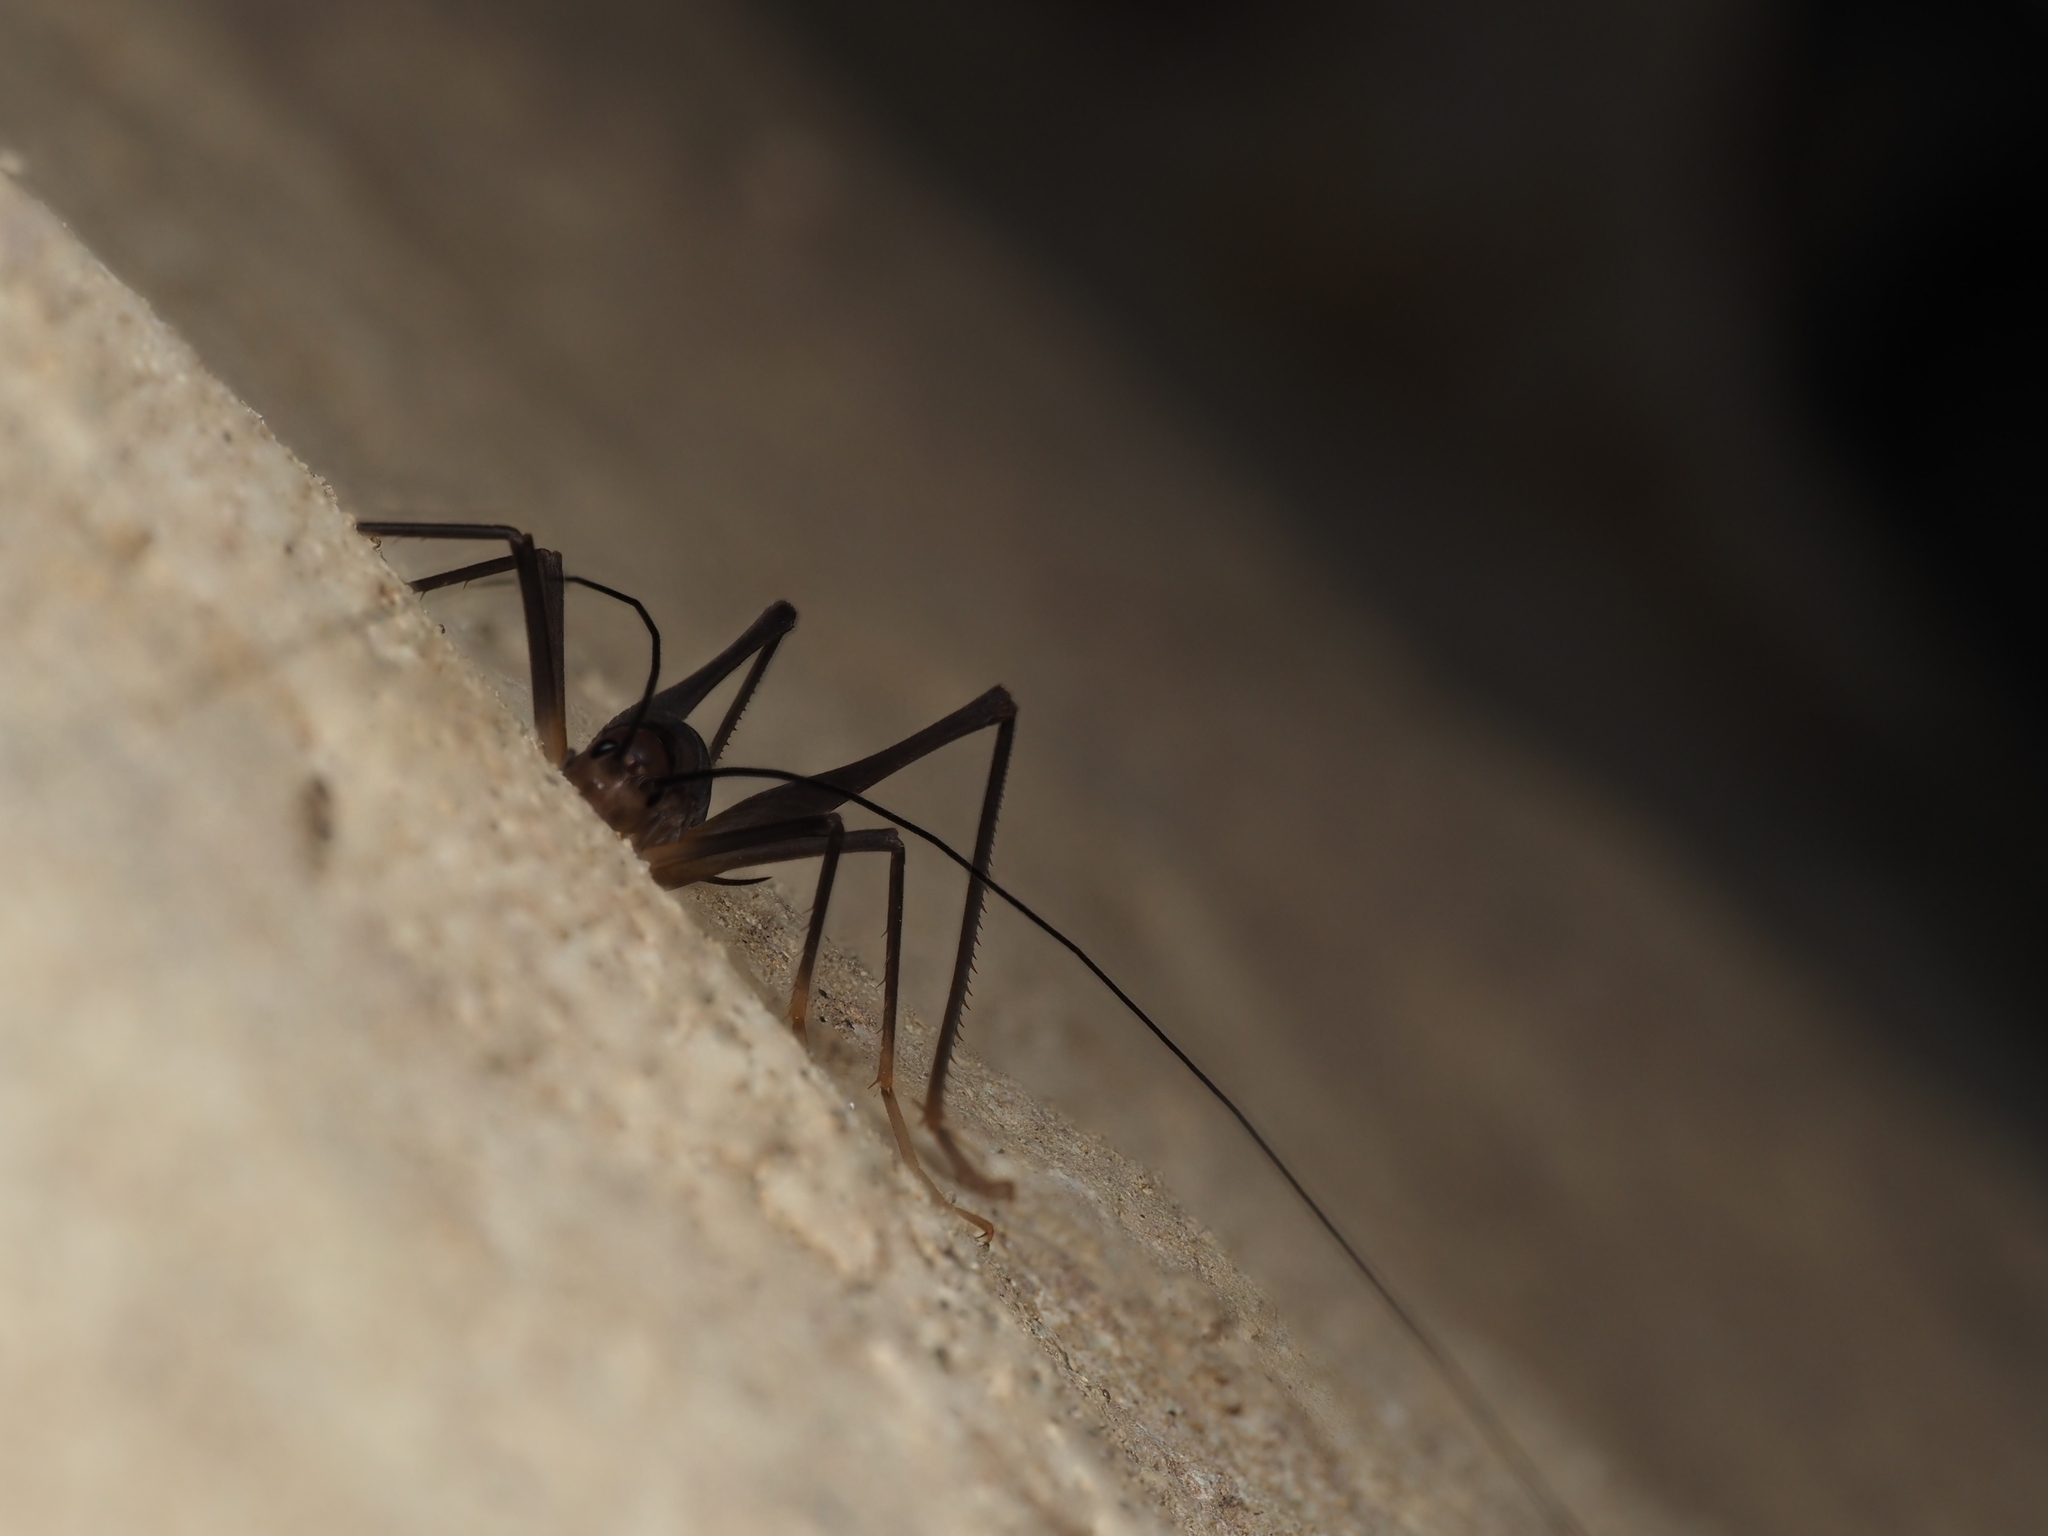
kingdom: Animalia
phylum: Arthropoda
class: Insecta
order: Orthoptera
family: Rhaphidophoridae
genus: Macropathus
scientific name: Macropathus filifer
